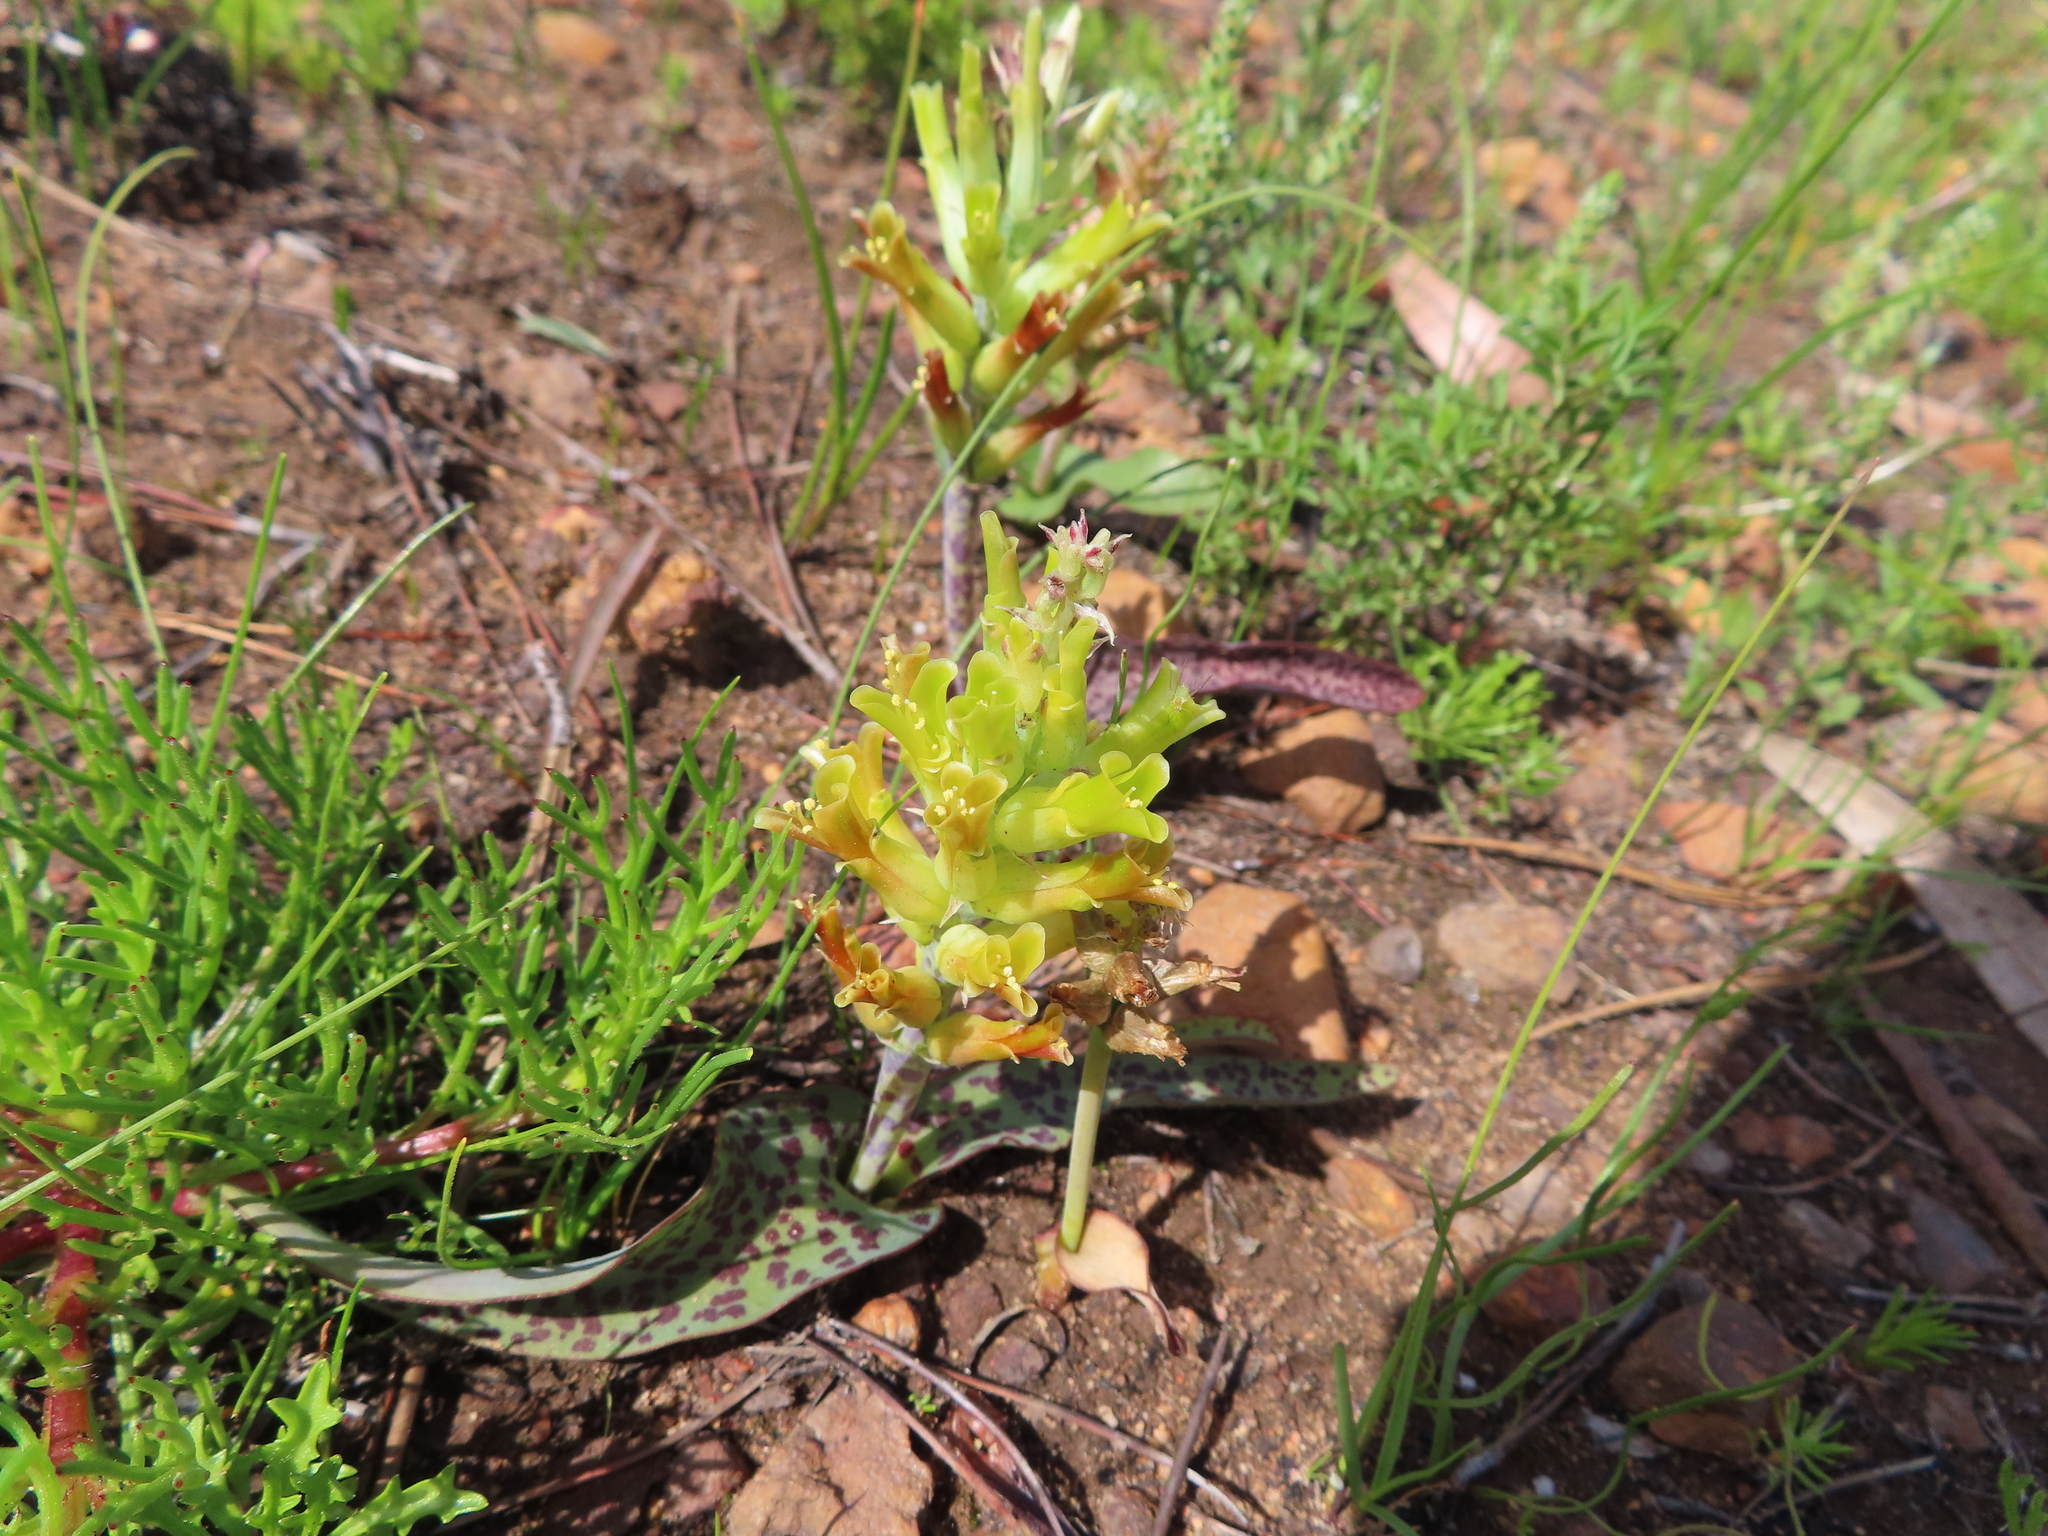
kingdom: Plantae
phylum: Tracheophyta
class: Liliopsida
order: Asparagales
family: Asparagaceae
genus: Lachenalia
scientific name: Lachenalia orchioides
